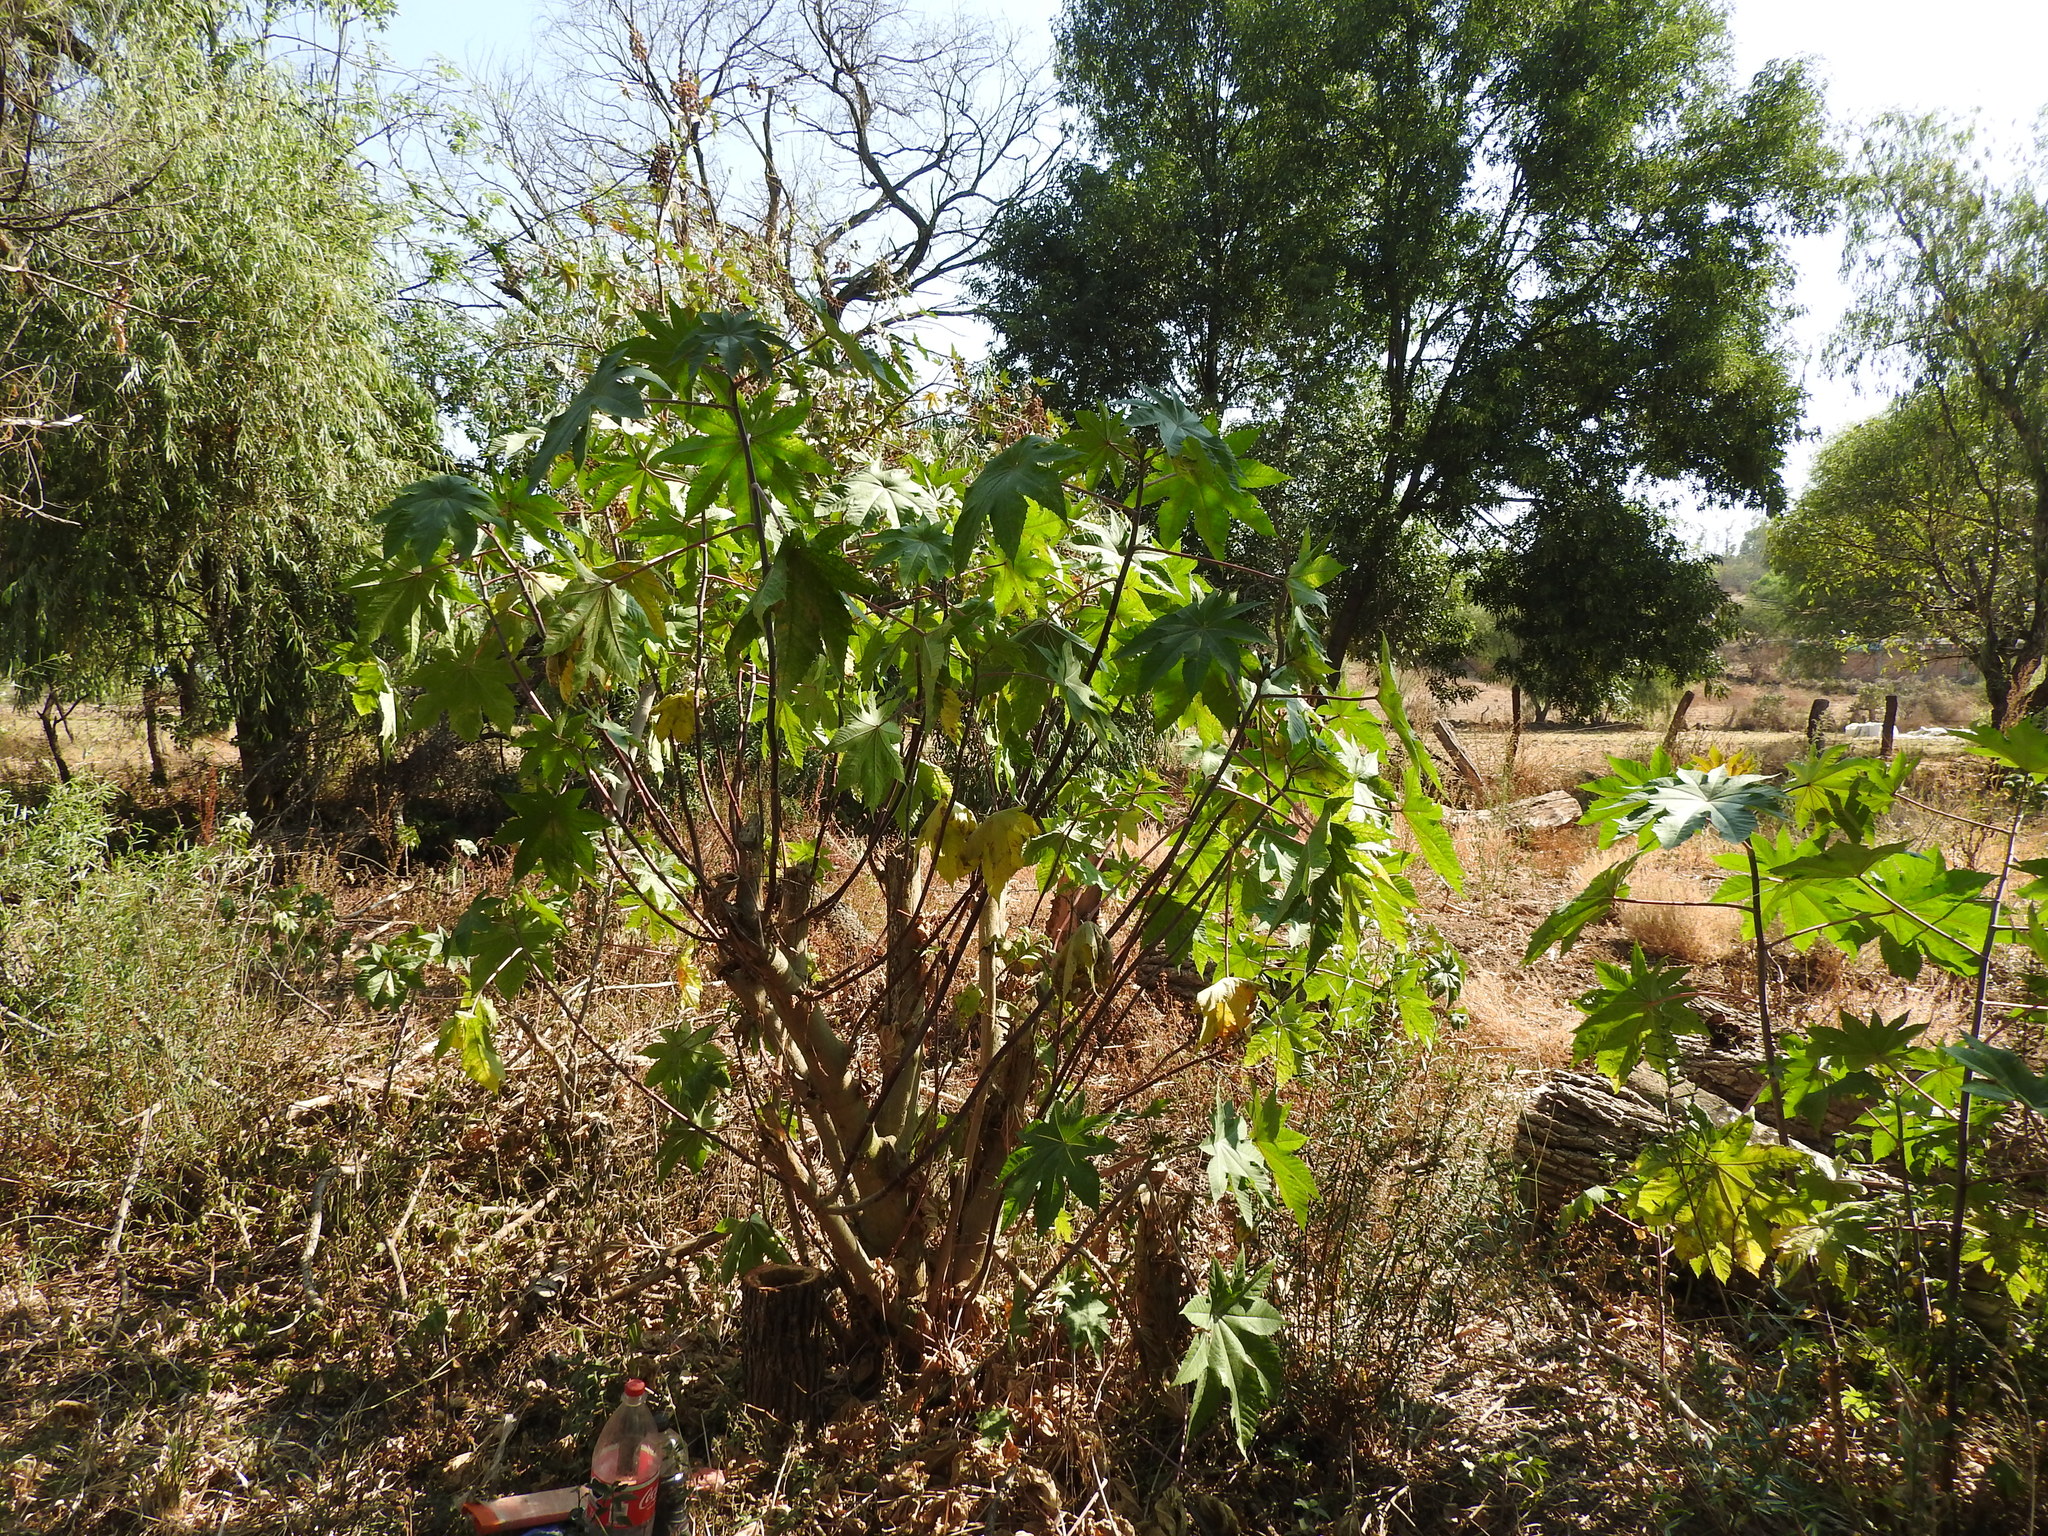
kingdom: Plantae
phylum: Tracheophyta
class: Magnoliopsida
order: Malpighiales
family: Euphorbiaceae
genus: Ricinus
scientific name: Ricinus communis
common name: Castor-oil-plant
